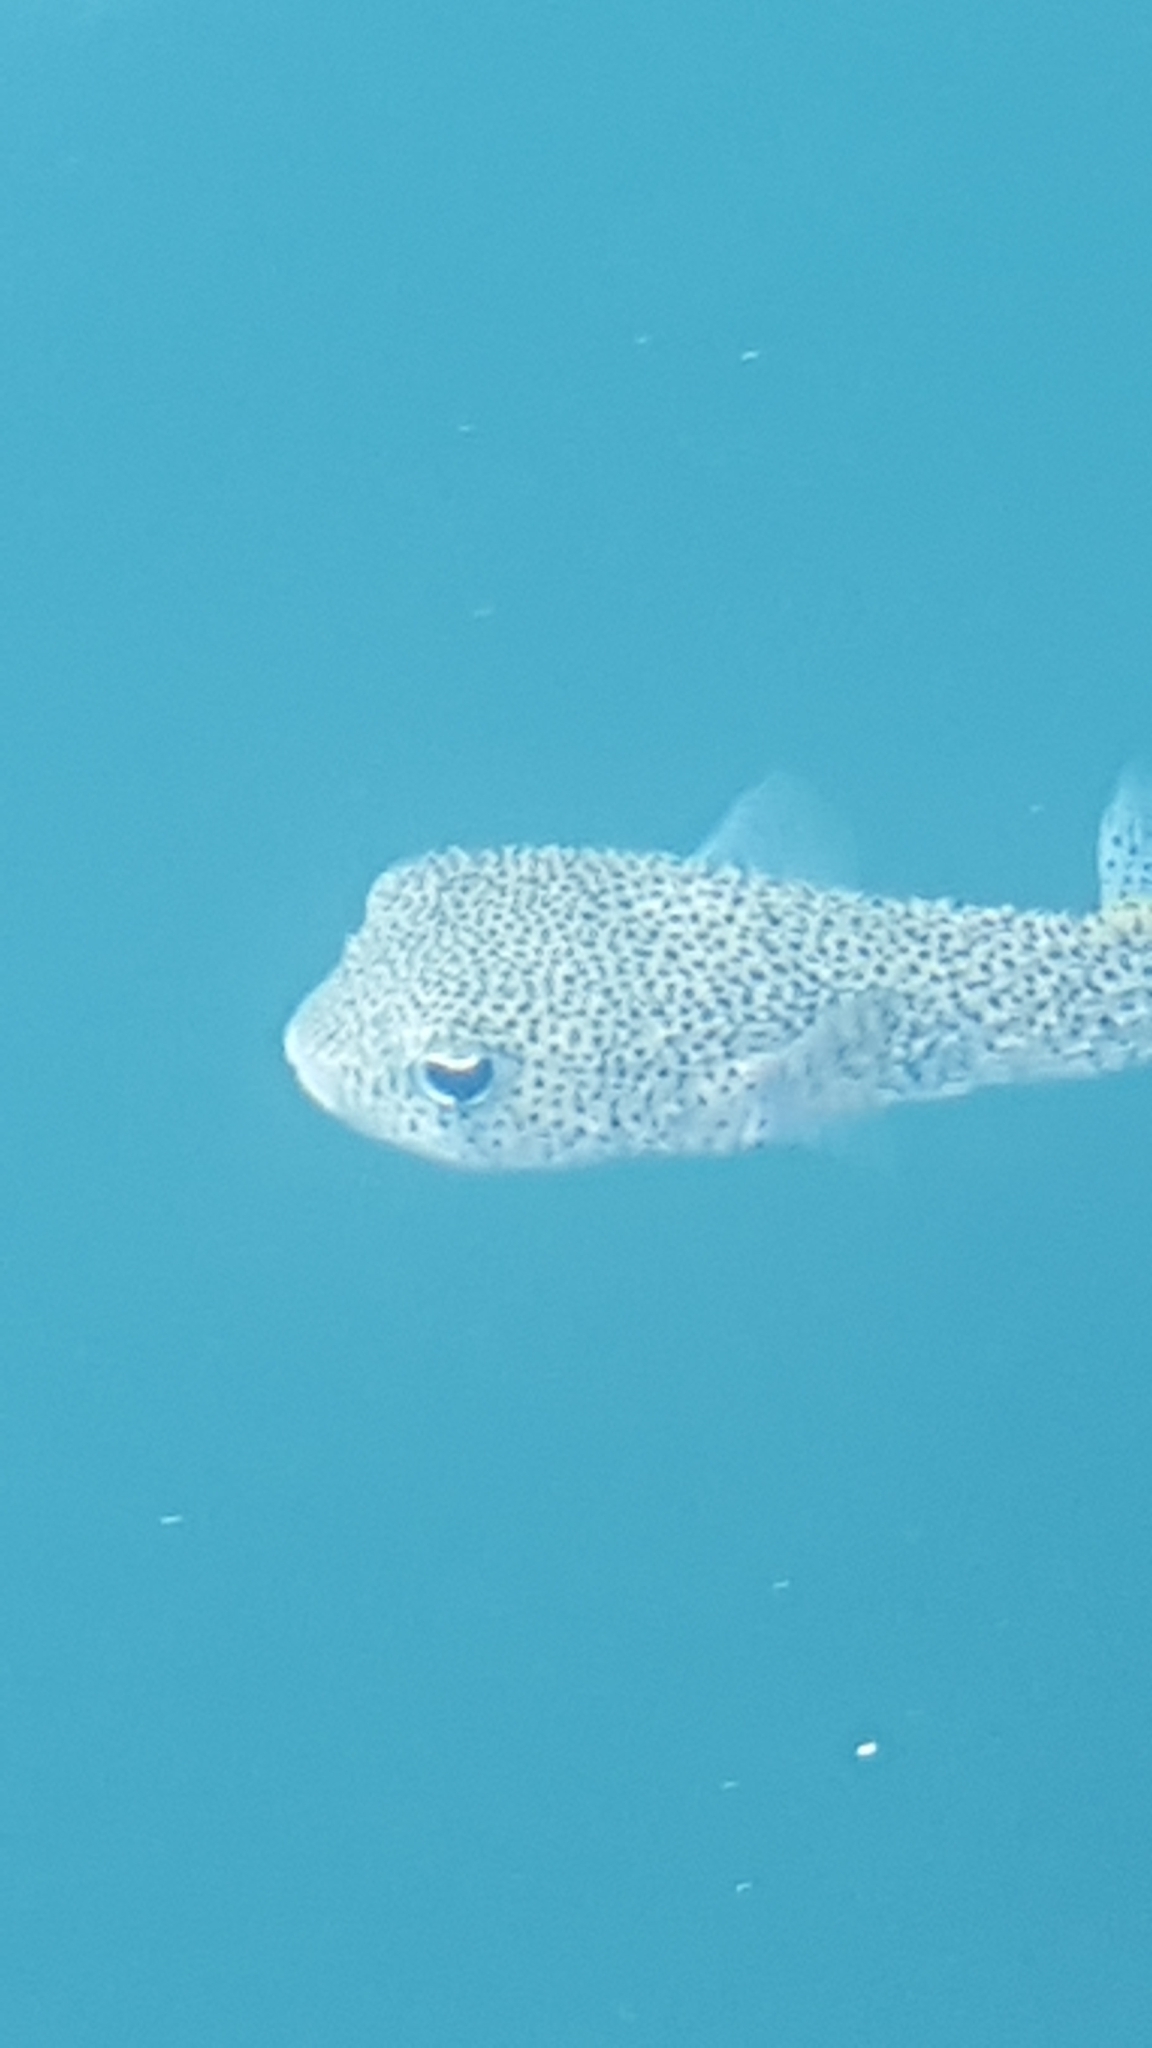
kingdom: Animalia
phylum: Chordata
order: Tetraodontiformes
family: Diodontidae
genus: Diodon
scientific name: Diodon hystrix
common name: Giant porcupinefish
